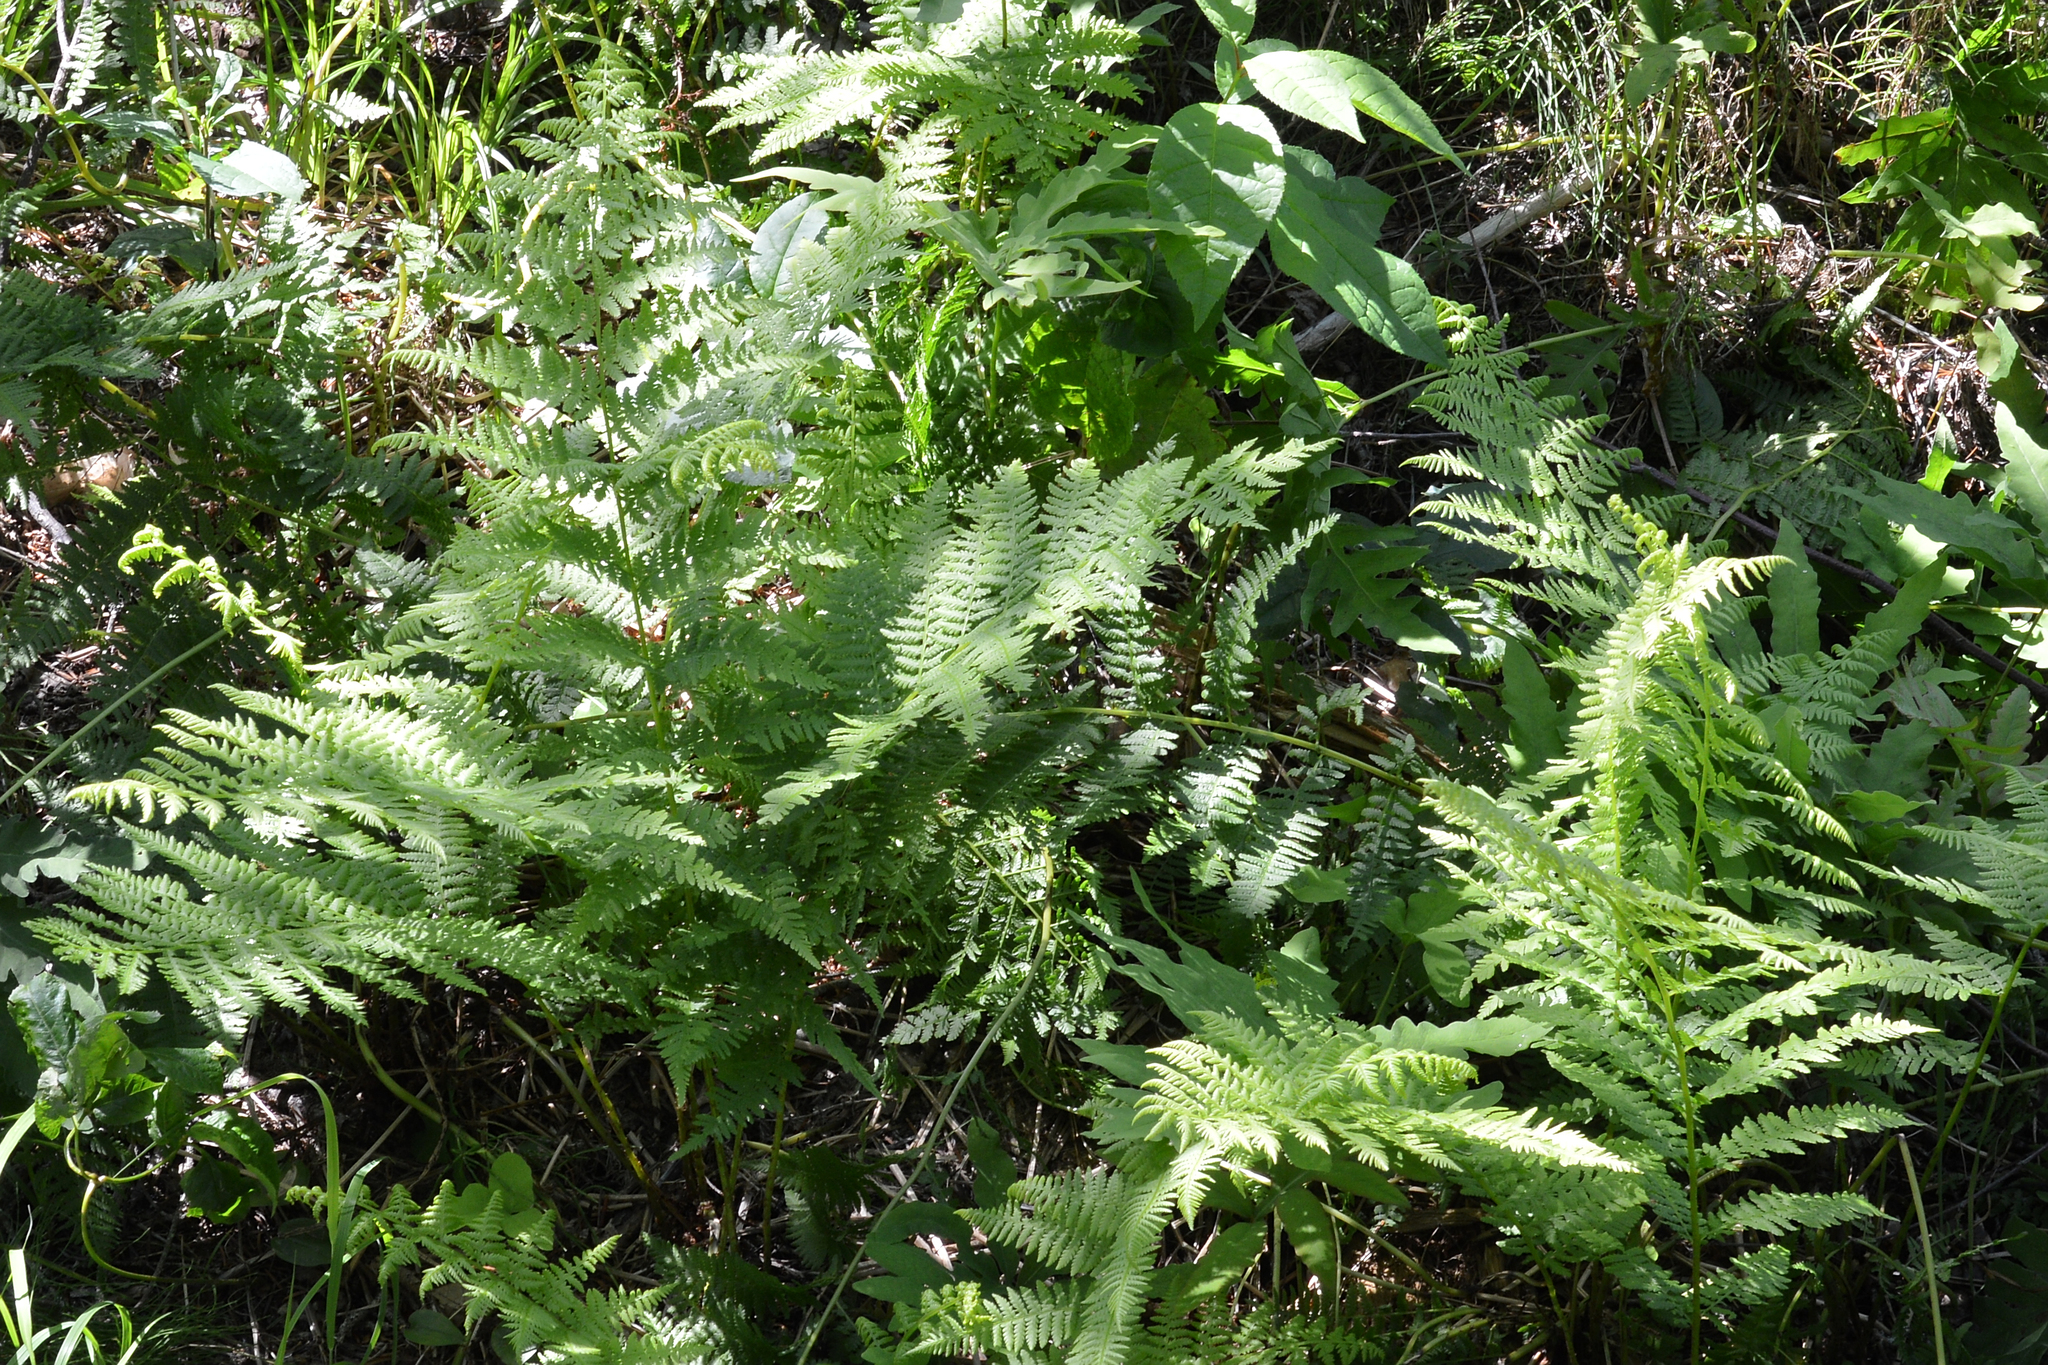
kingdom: Plantae
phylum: Tracheophyta
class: Polypodiopsida
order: Polypodiales
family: Athyriaceae
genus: Athyrium
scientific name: Athyrium angustum
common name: Northern lady fern
